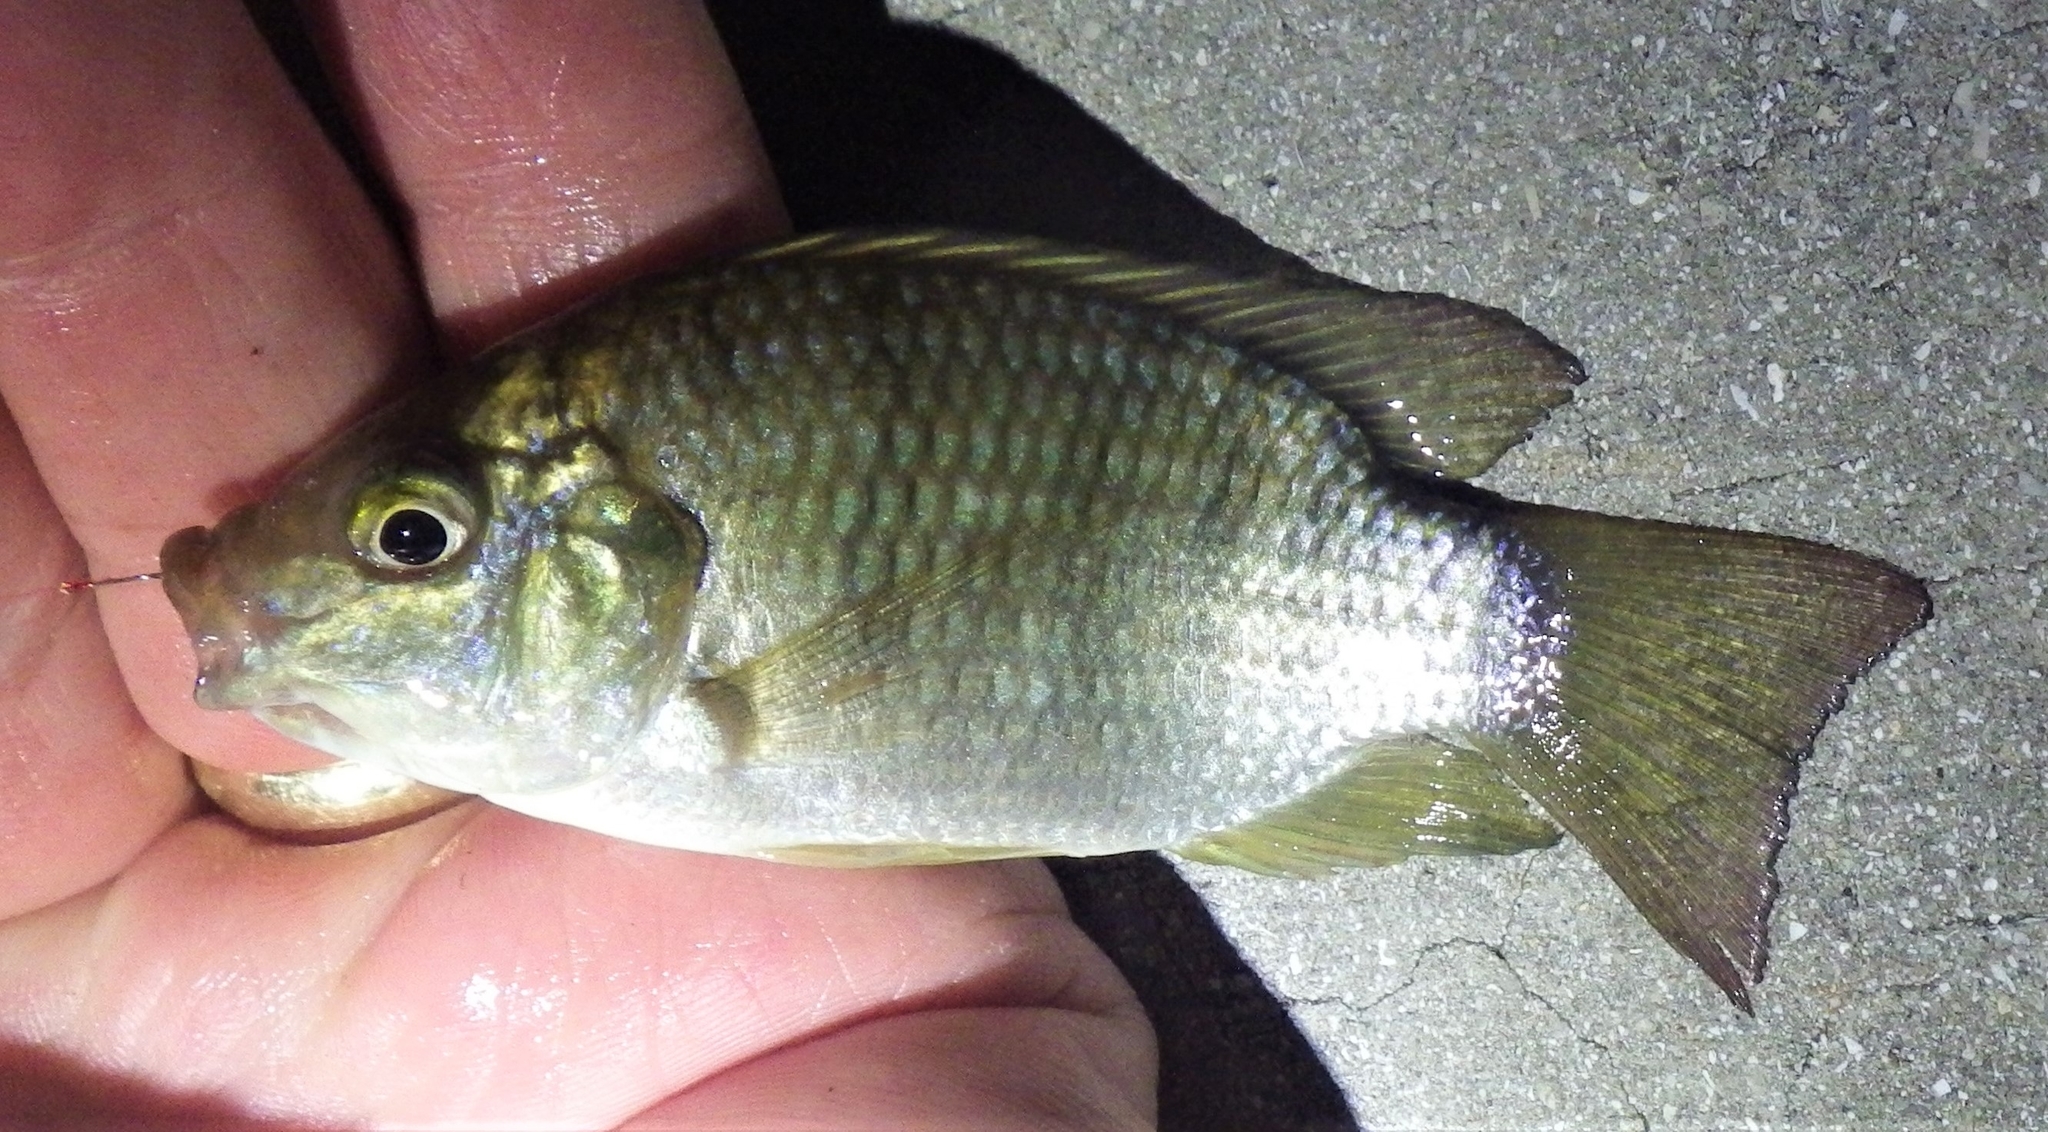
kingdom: Animalia
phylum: Chordata
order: Perciformes
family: Cichlidae
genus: Sarotherodon
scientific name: Sarotherodon melanotheron
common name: Blackchin tilapia
